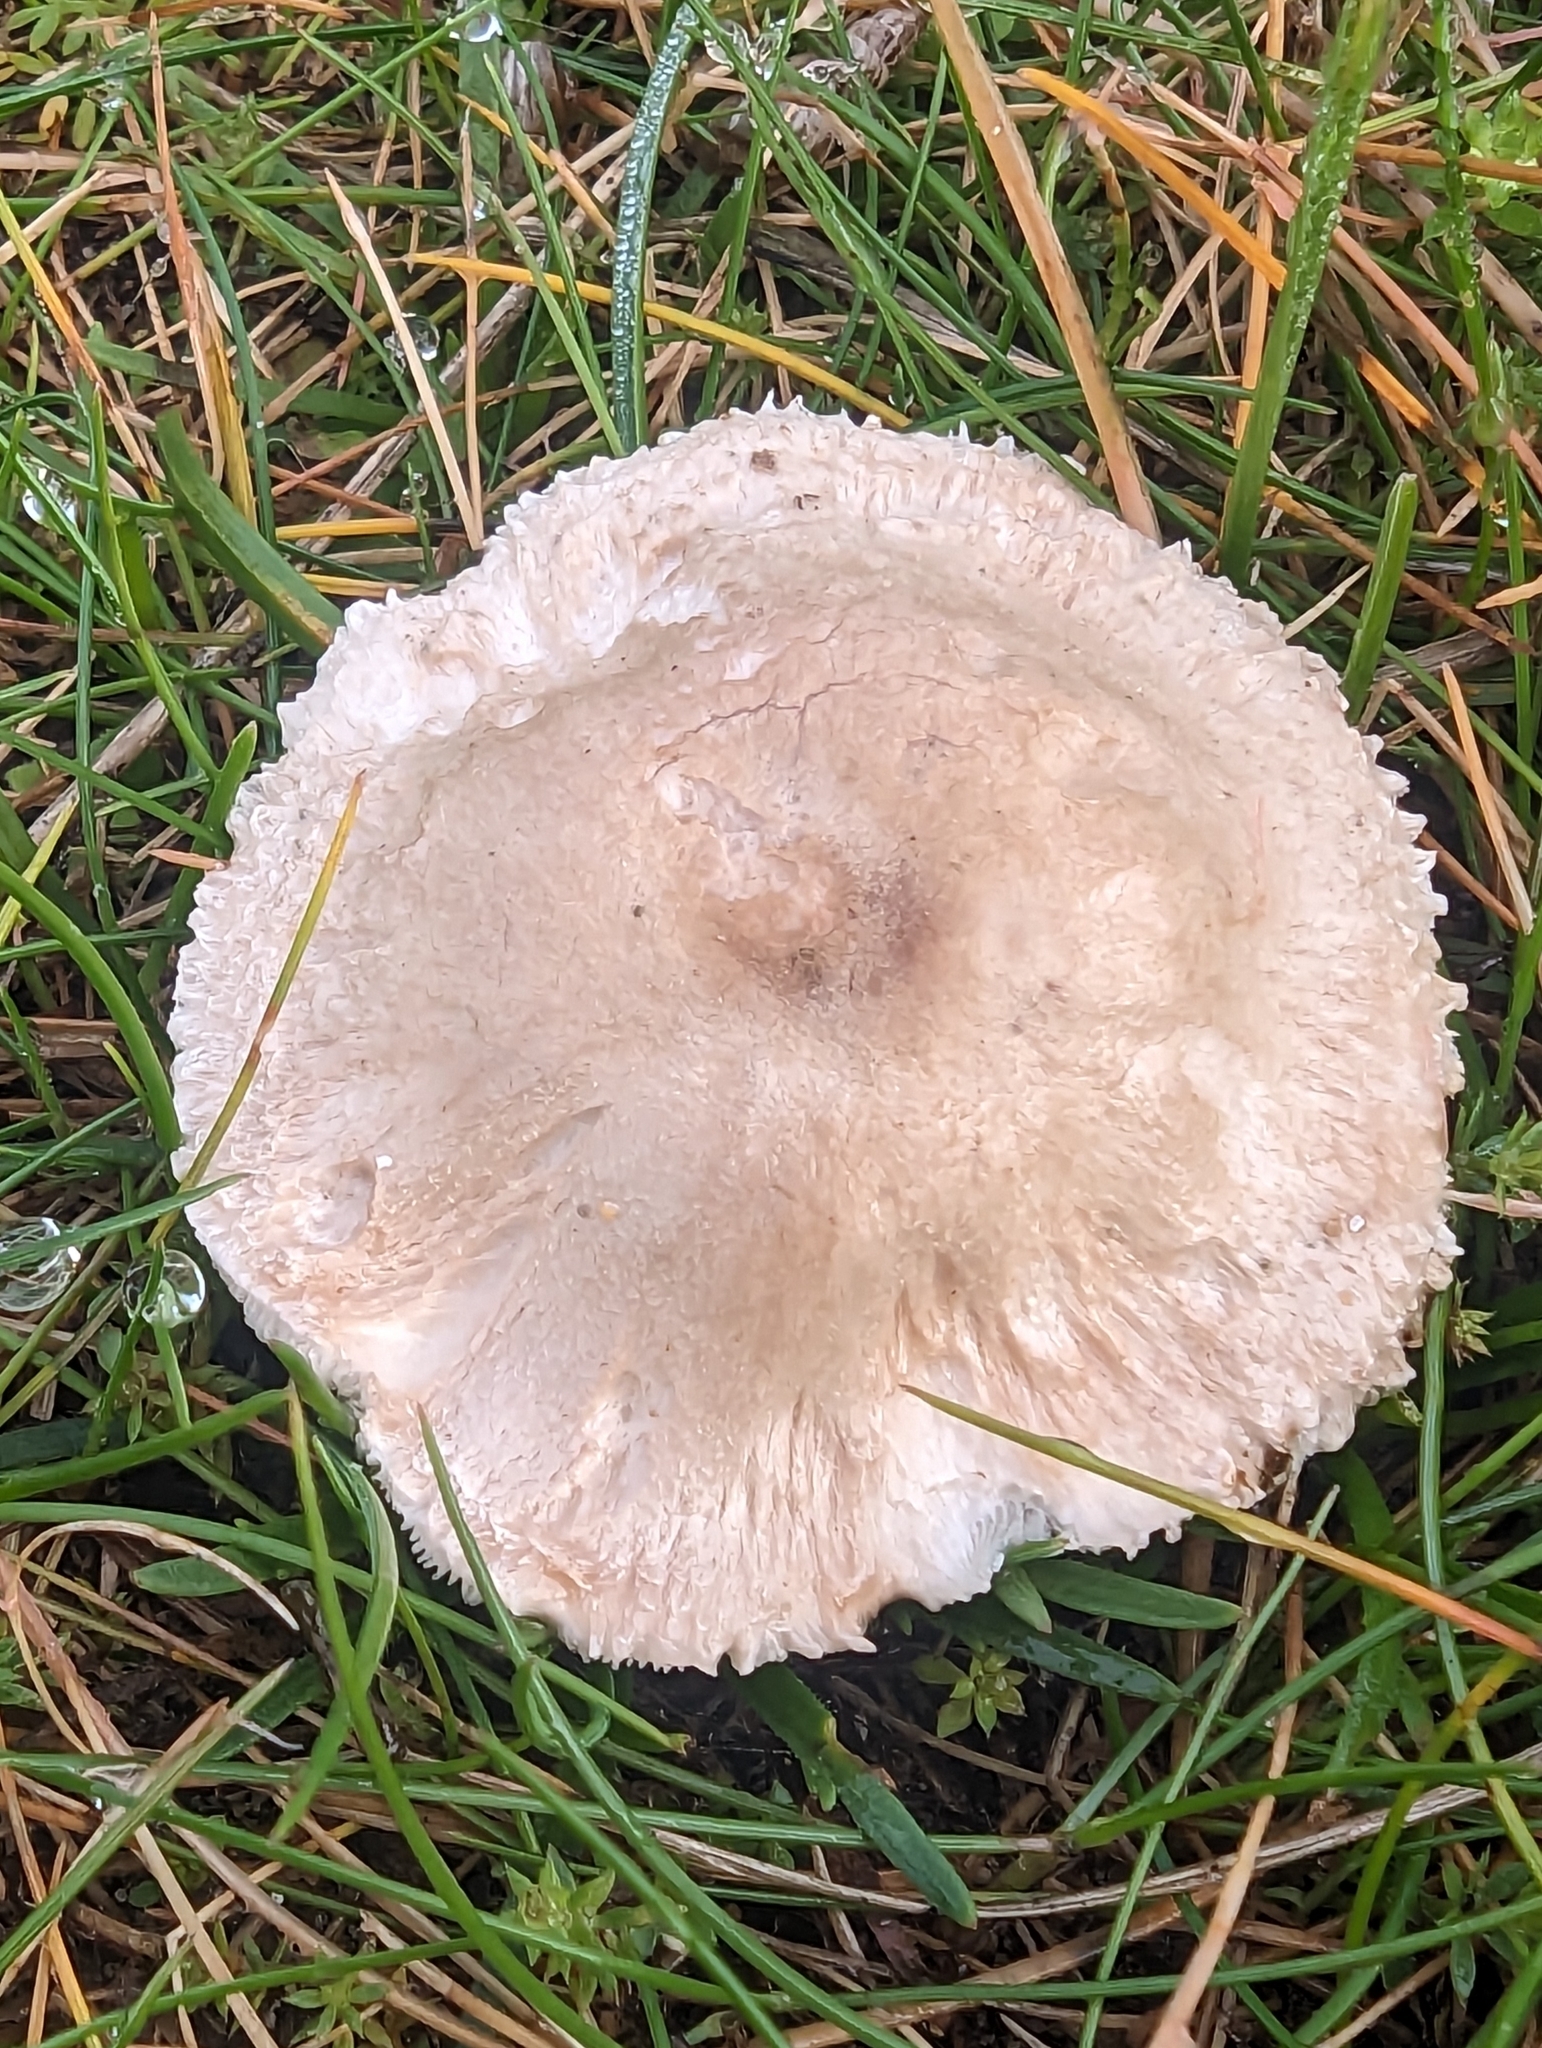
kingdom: Fungi
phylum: Basidiomycota
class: Agaricomycetes
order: Agaricales
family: Agaricaceae
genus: Macrolepiota
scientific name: Macrolepiota mastoidea
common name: Slender parasol
